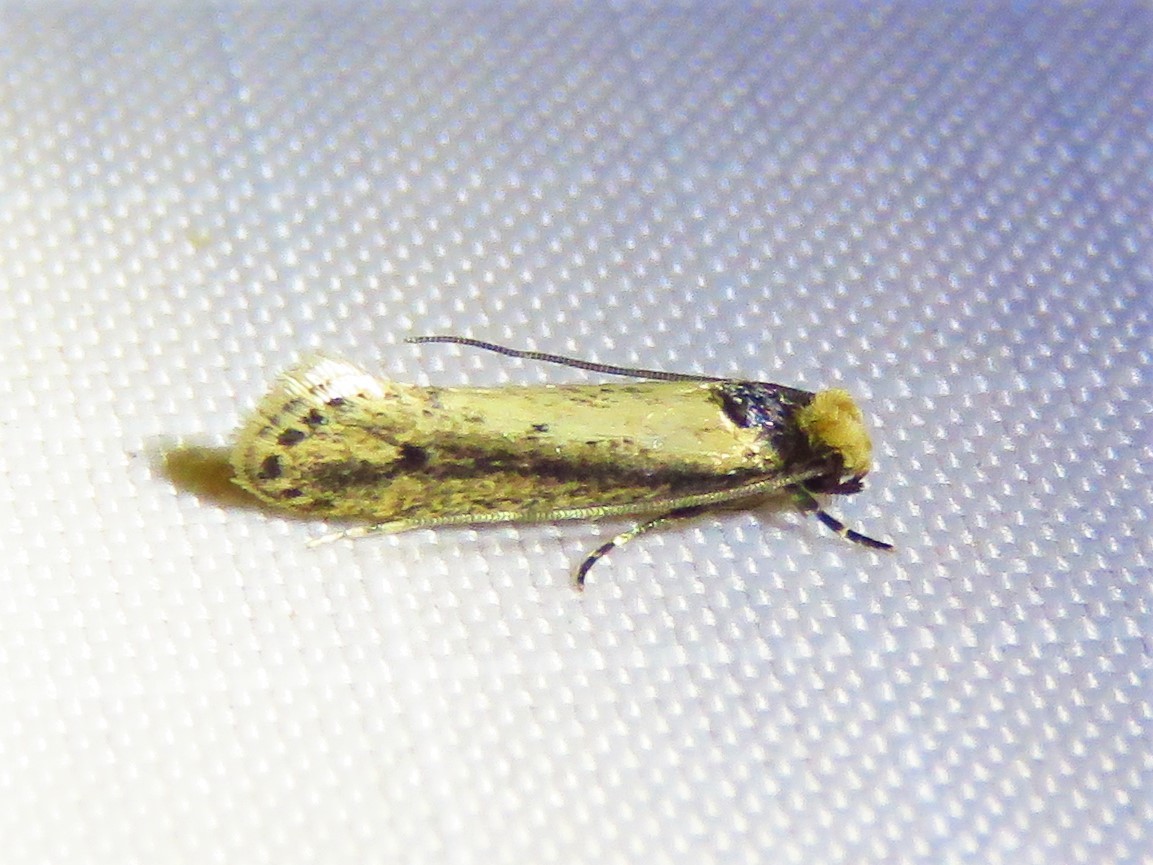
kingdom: Animalia
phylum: Arthropoda
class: Insecta
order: Lepidoptera
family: Tineidae
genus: Tinea
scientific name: Tinea apicimaculella
